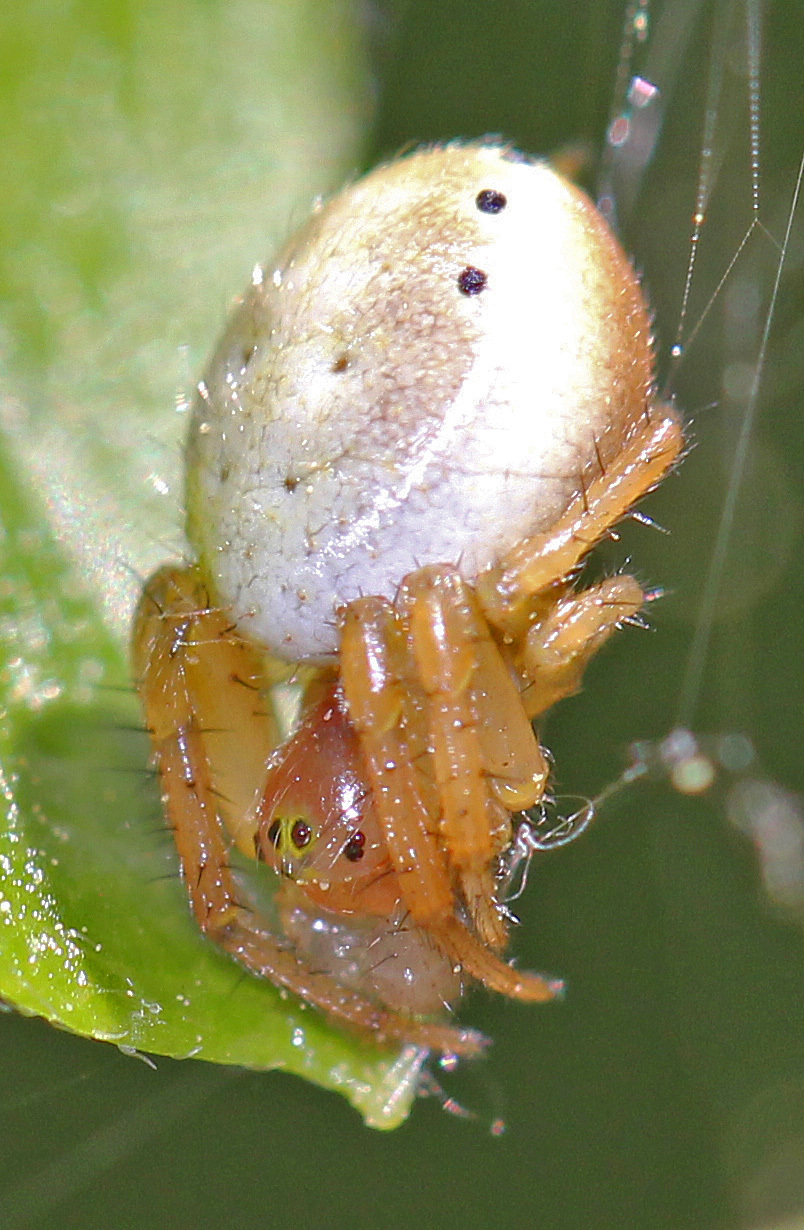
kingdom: Animalia
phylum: Arthropoda
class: Arachnida
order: Araneae
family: Araneidae
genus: Araniella
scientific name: Araniella displicata
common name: Sixspotted orb weaver
